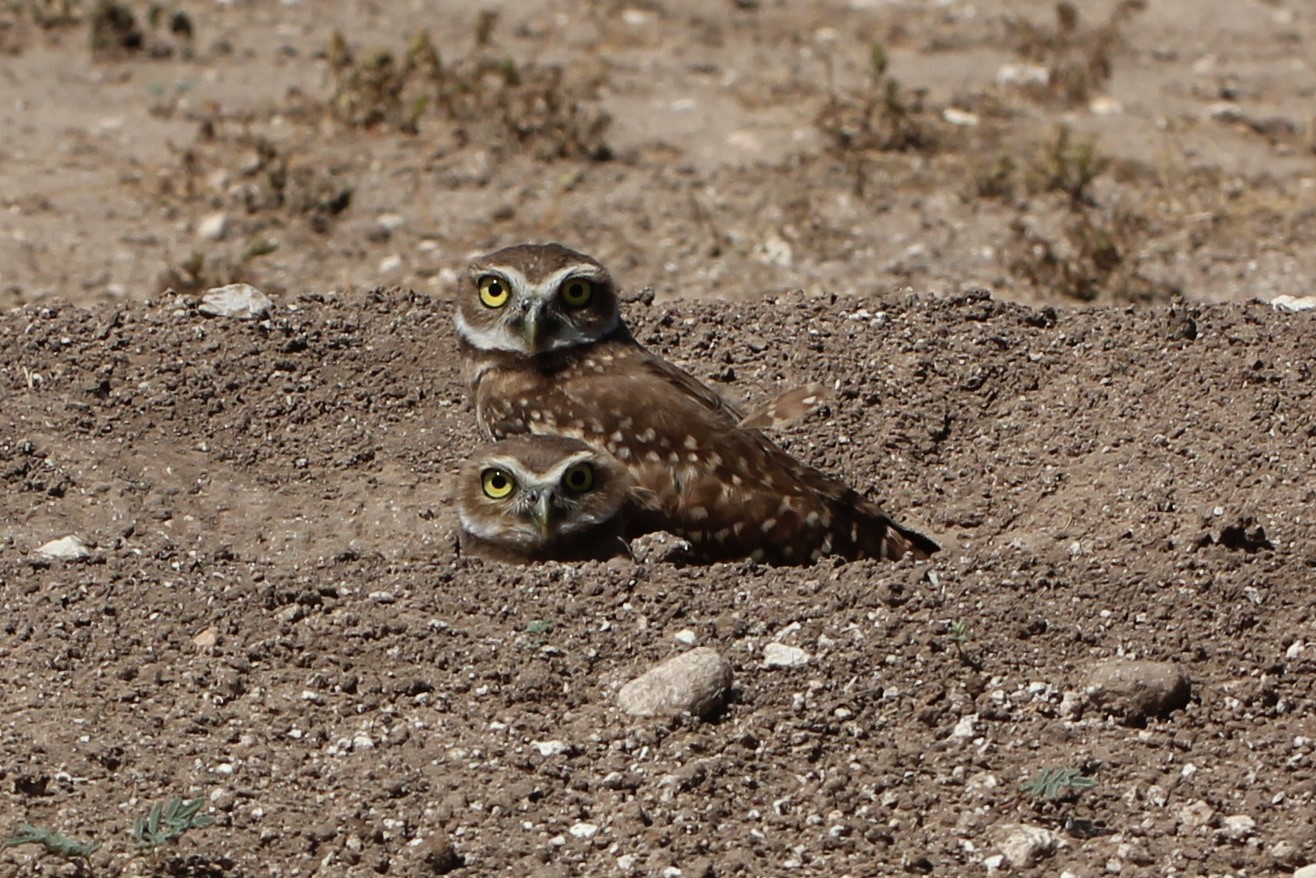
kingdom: Animalia
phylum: Chordata
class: Aves
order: Strigiformes
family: Strigidae
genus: Athene
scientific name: Athene cunicularia
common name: Burrowing owl
